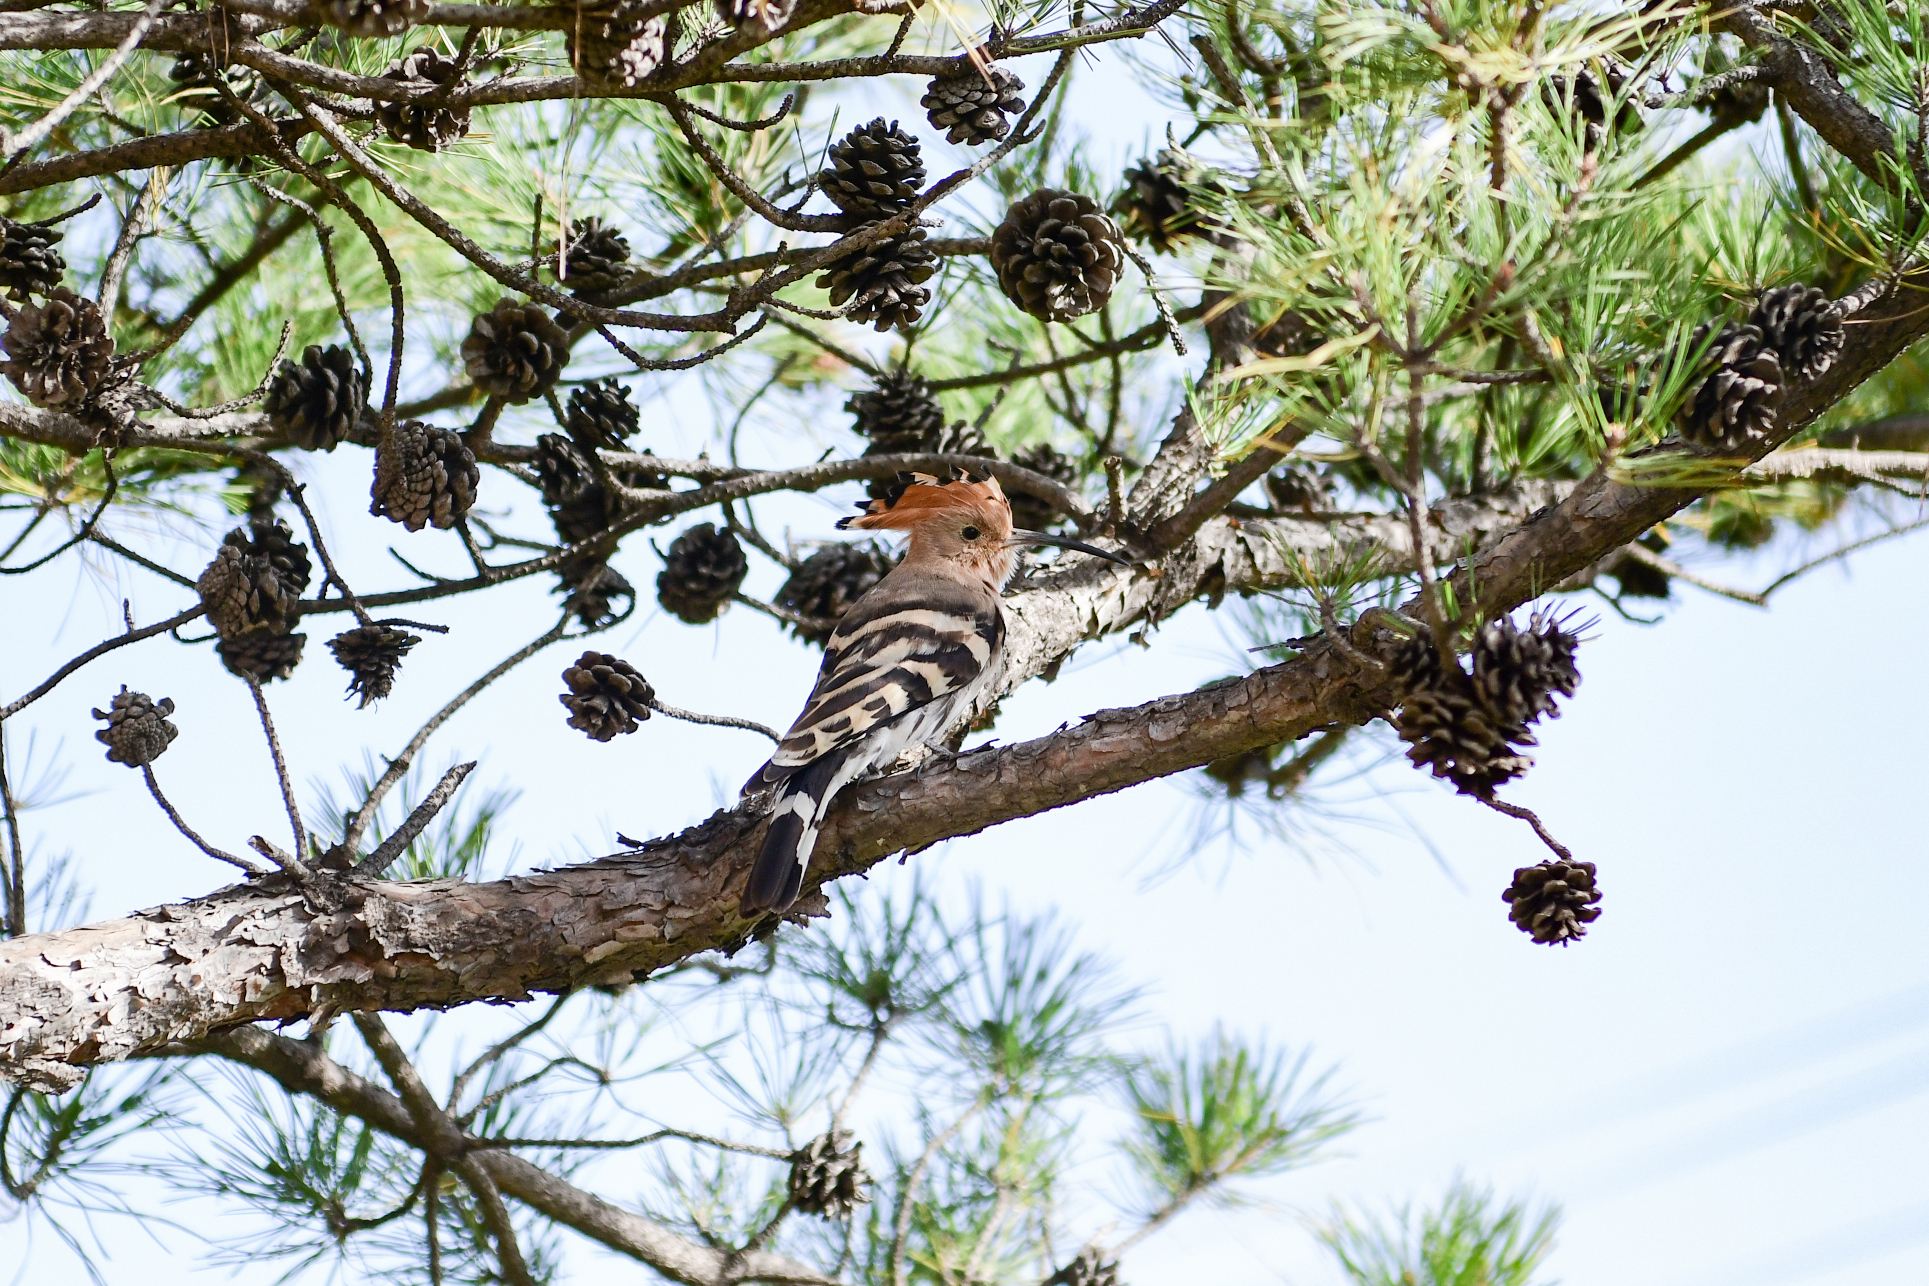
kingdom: Animalia
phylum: Chordata
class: Aves
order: Bucerotiformes
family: Upupidae
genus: Upupa
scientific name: Upupa epops
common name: Eurasian hoopoe
